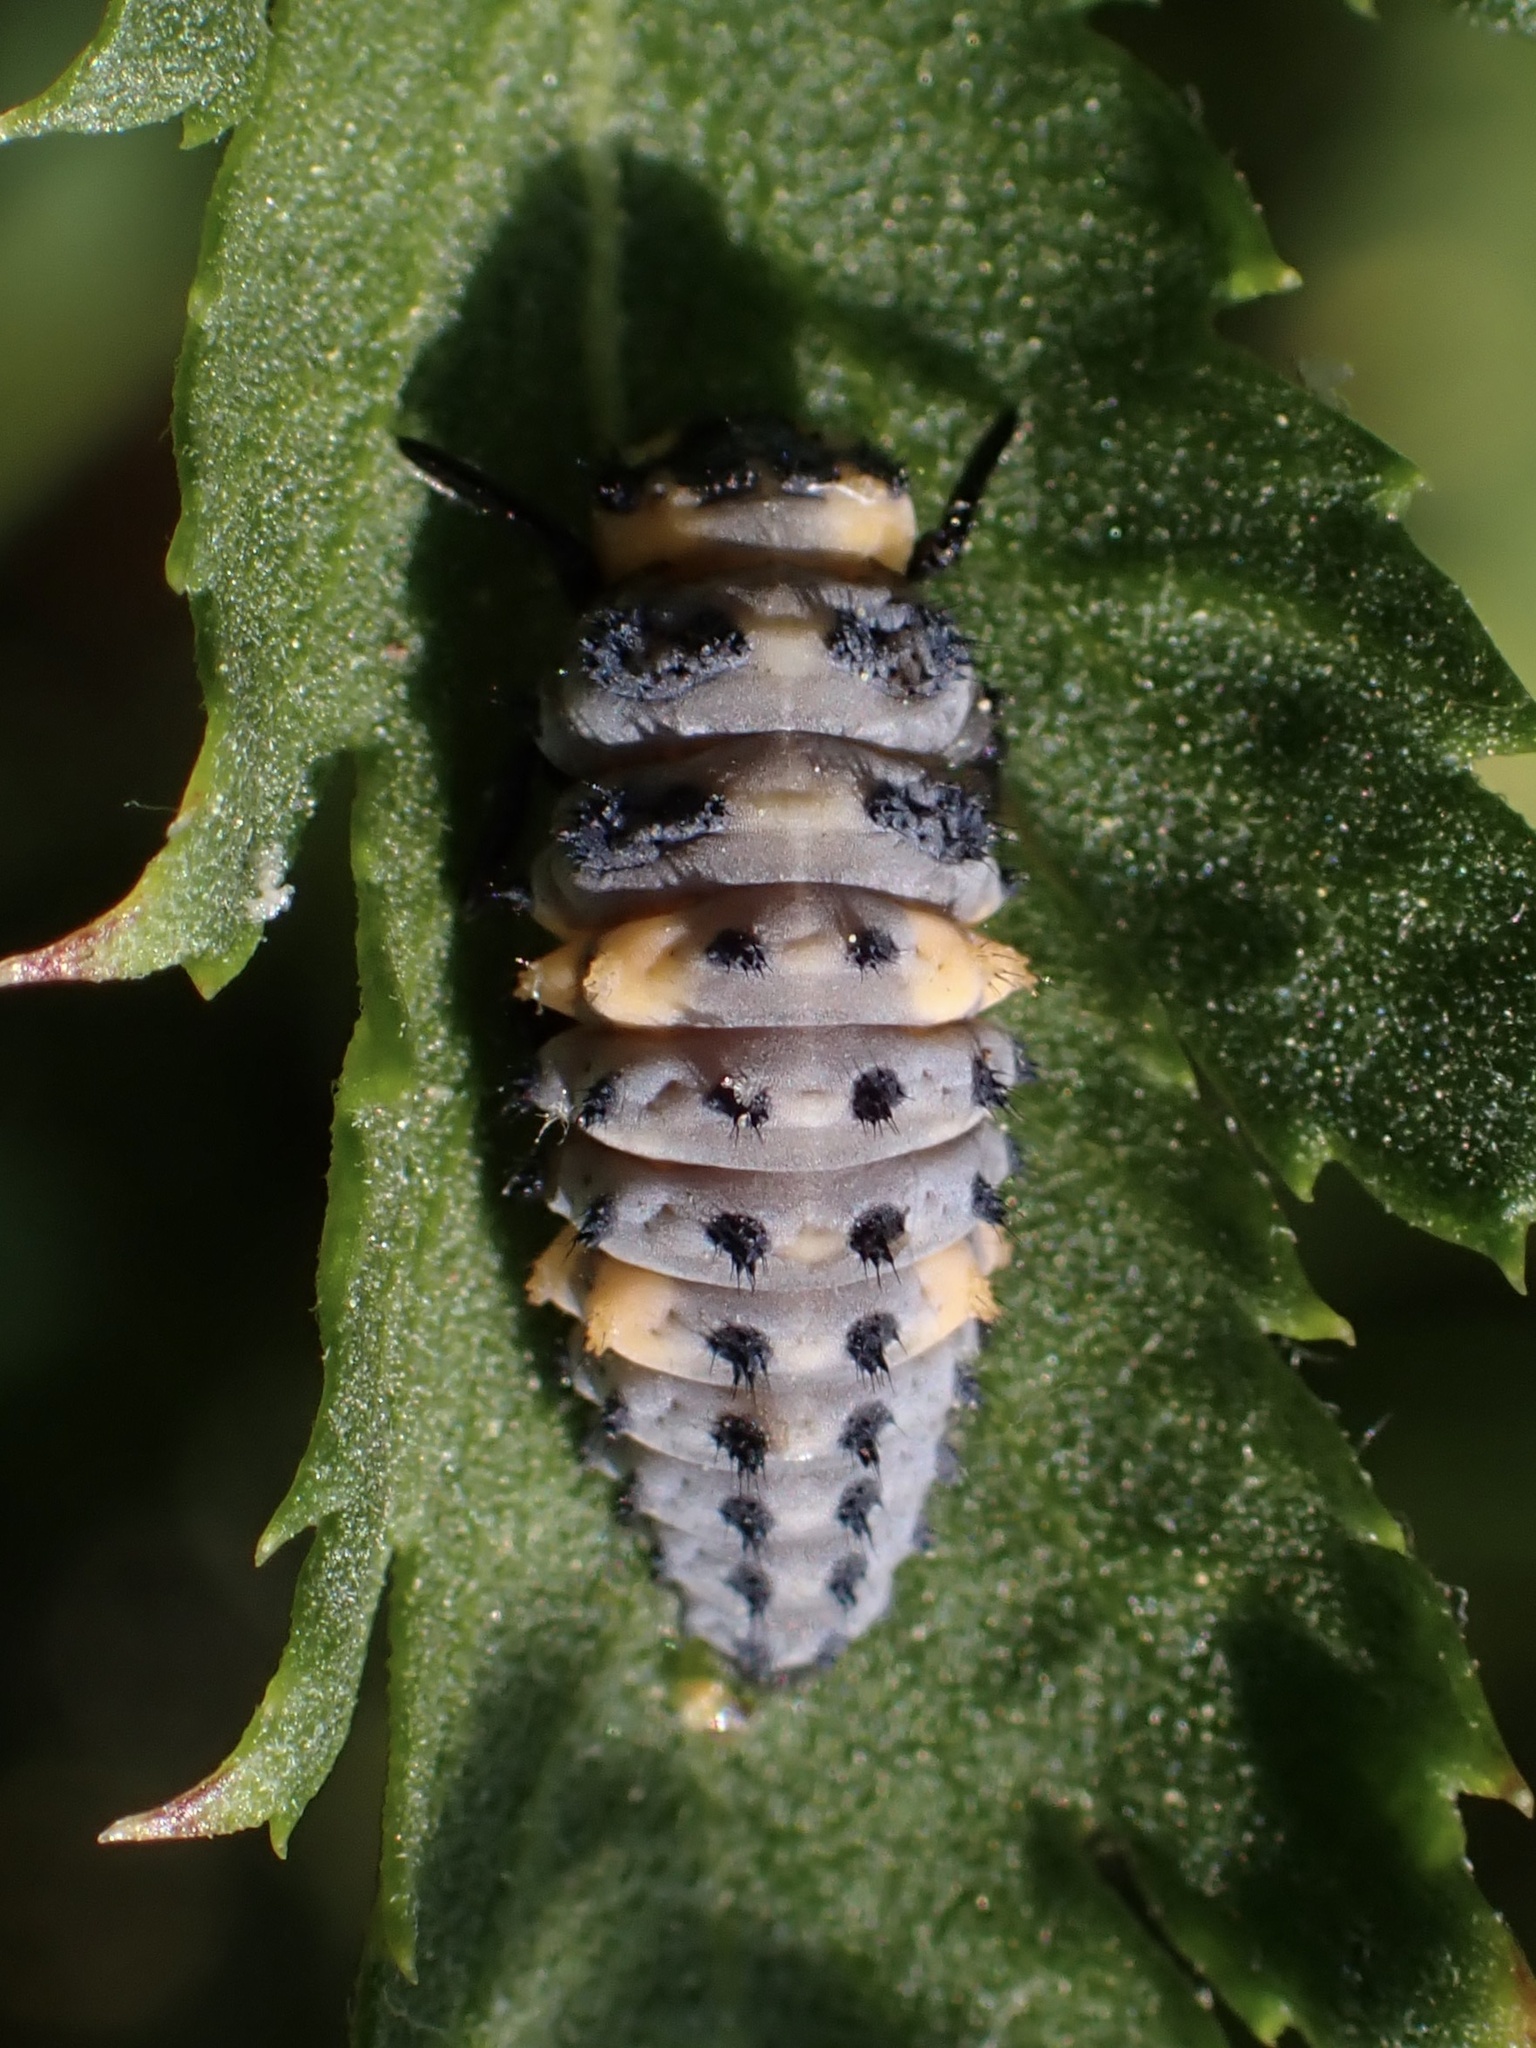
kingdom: Animalia
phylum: Arthropoda
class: Insecta
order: Coleoptera
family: Coccinellidae
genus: Coccinella
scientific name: Coccinella septempunctata
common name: Sevenspotted lady beetle
